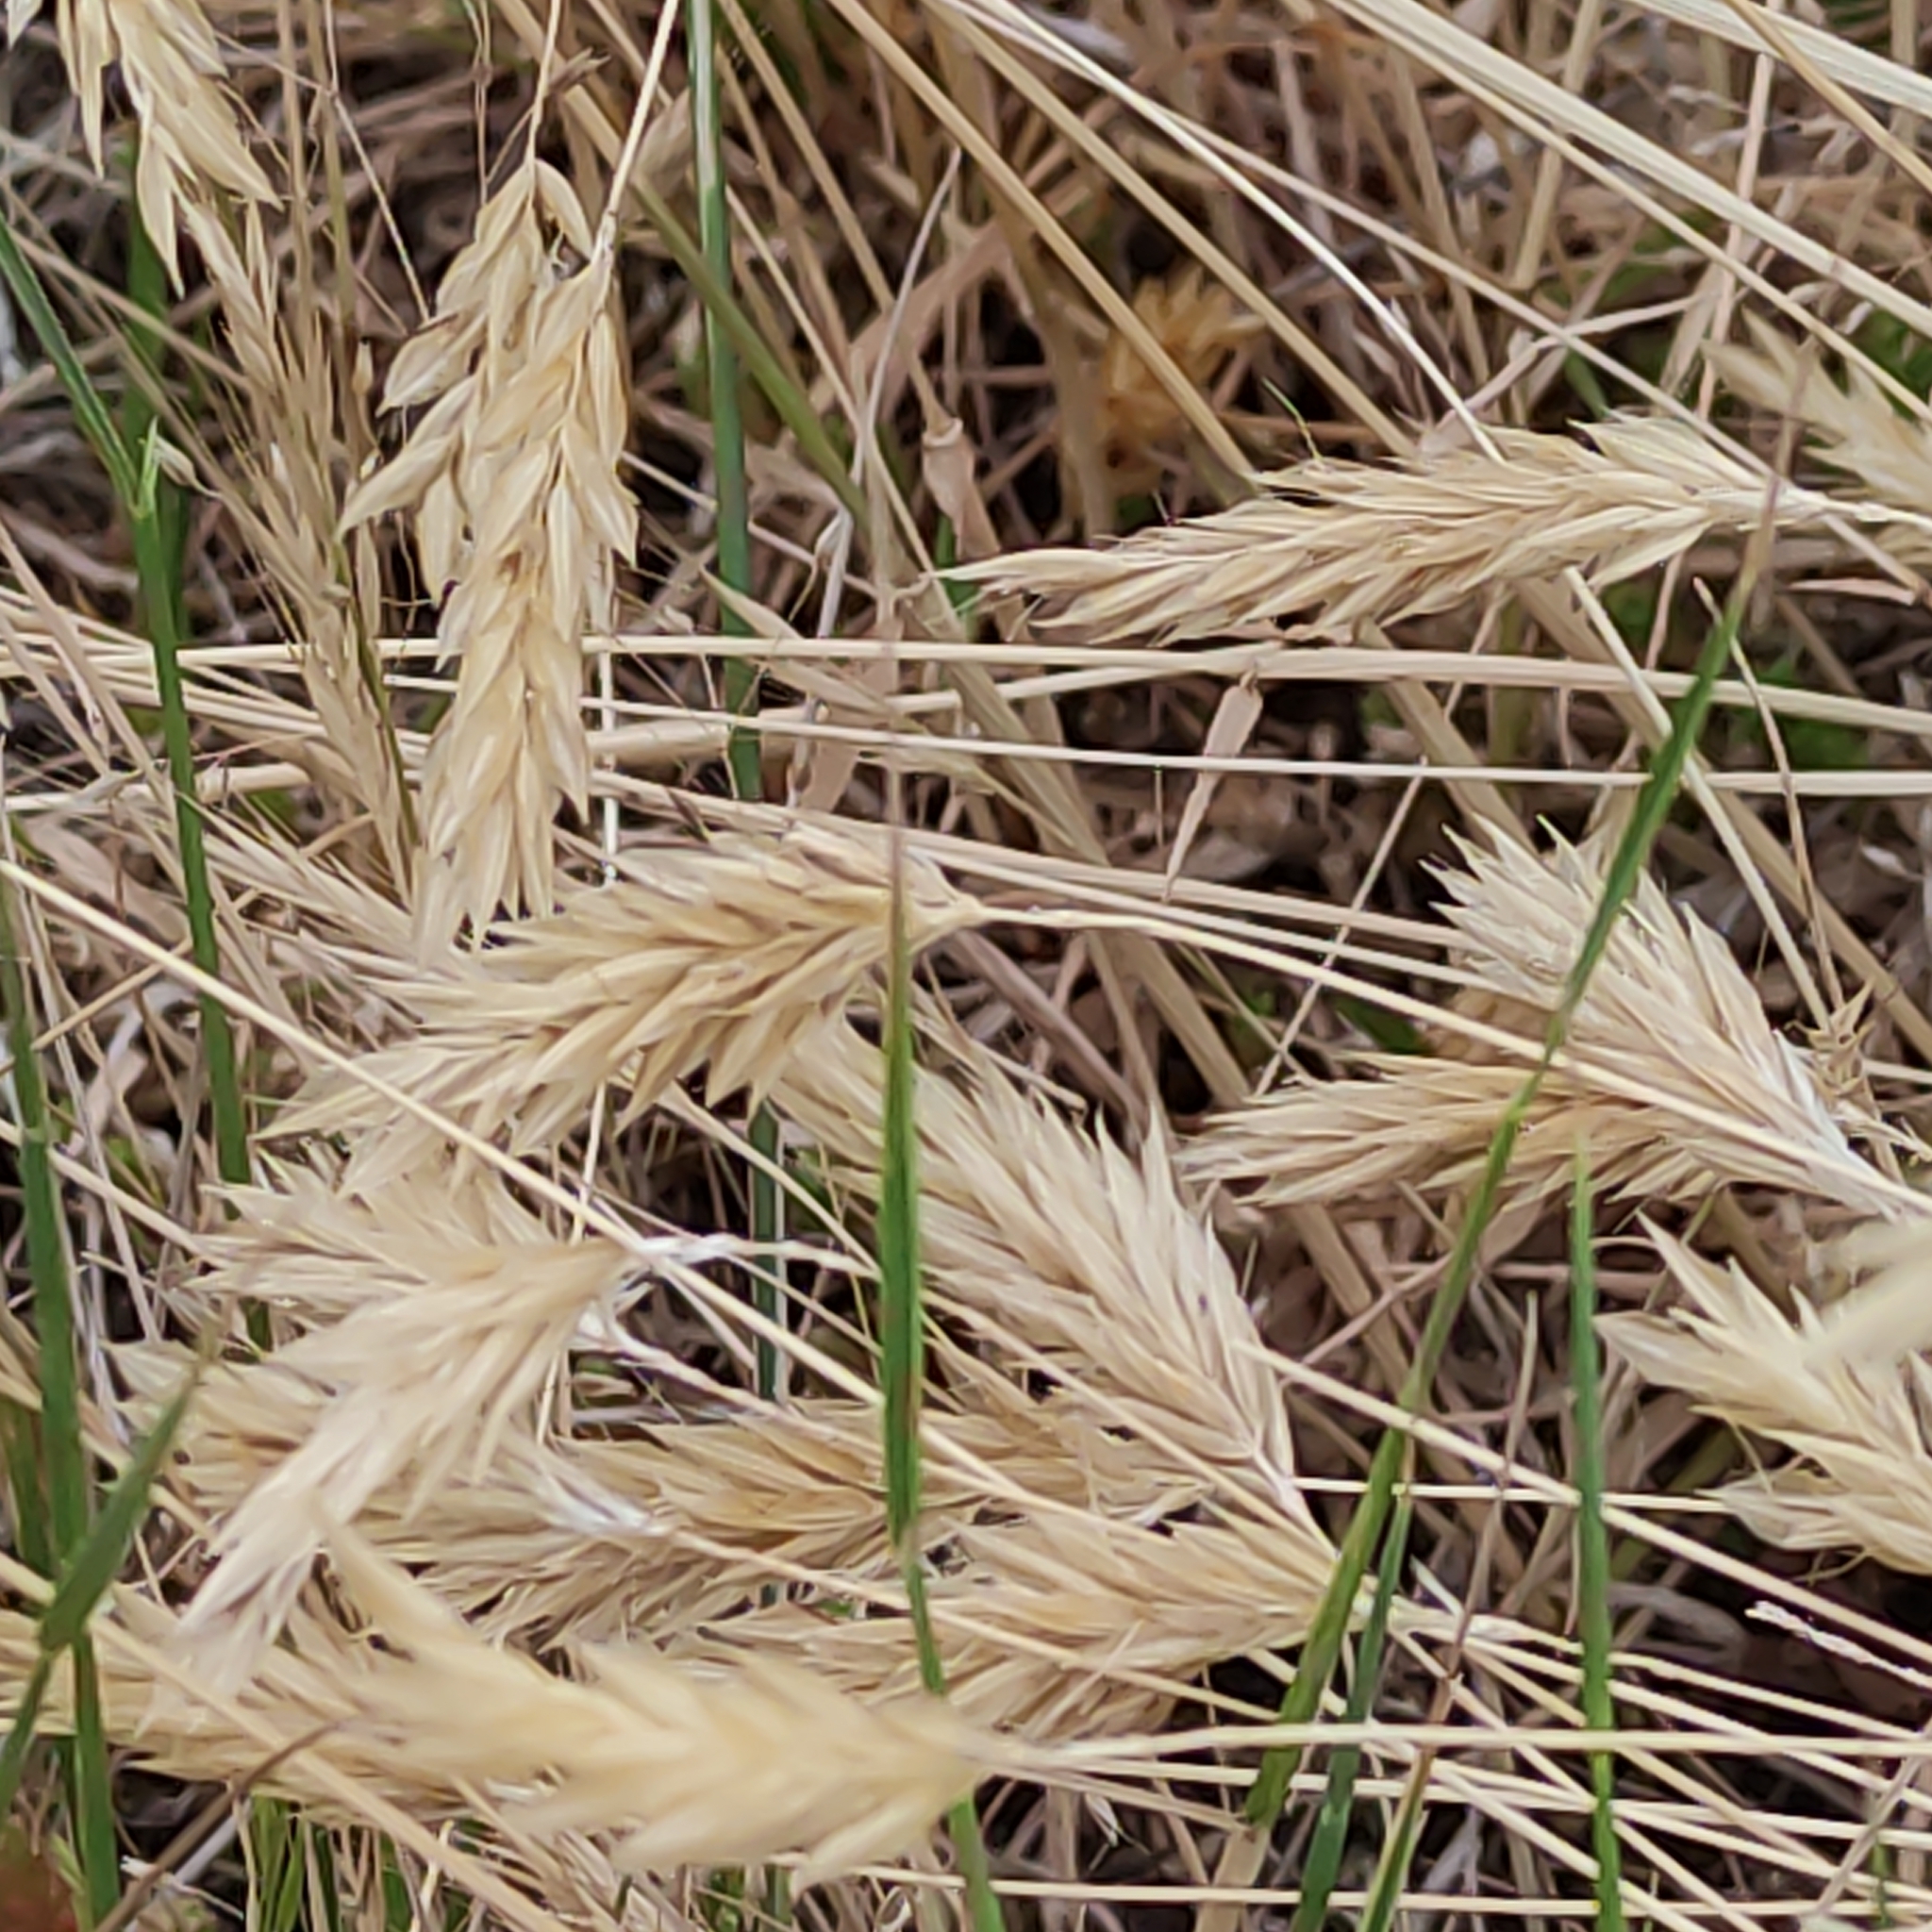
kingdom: Plantae
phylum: Tracheophyta
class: Liliopsida
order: Poales
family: Poaceae
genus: Anthoxanthum
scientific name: Anthoxanthum odoratum
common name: Sweet vernalgrass
